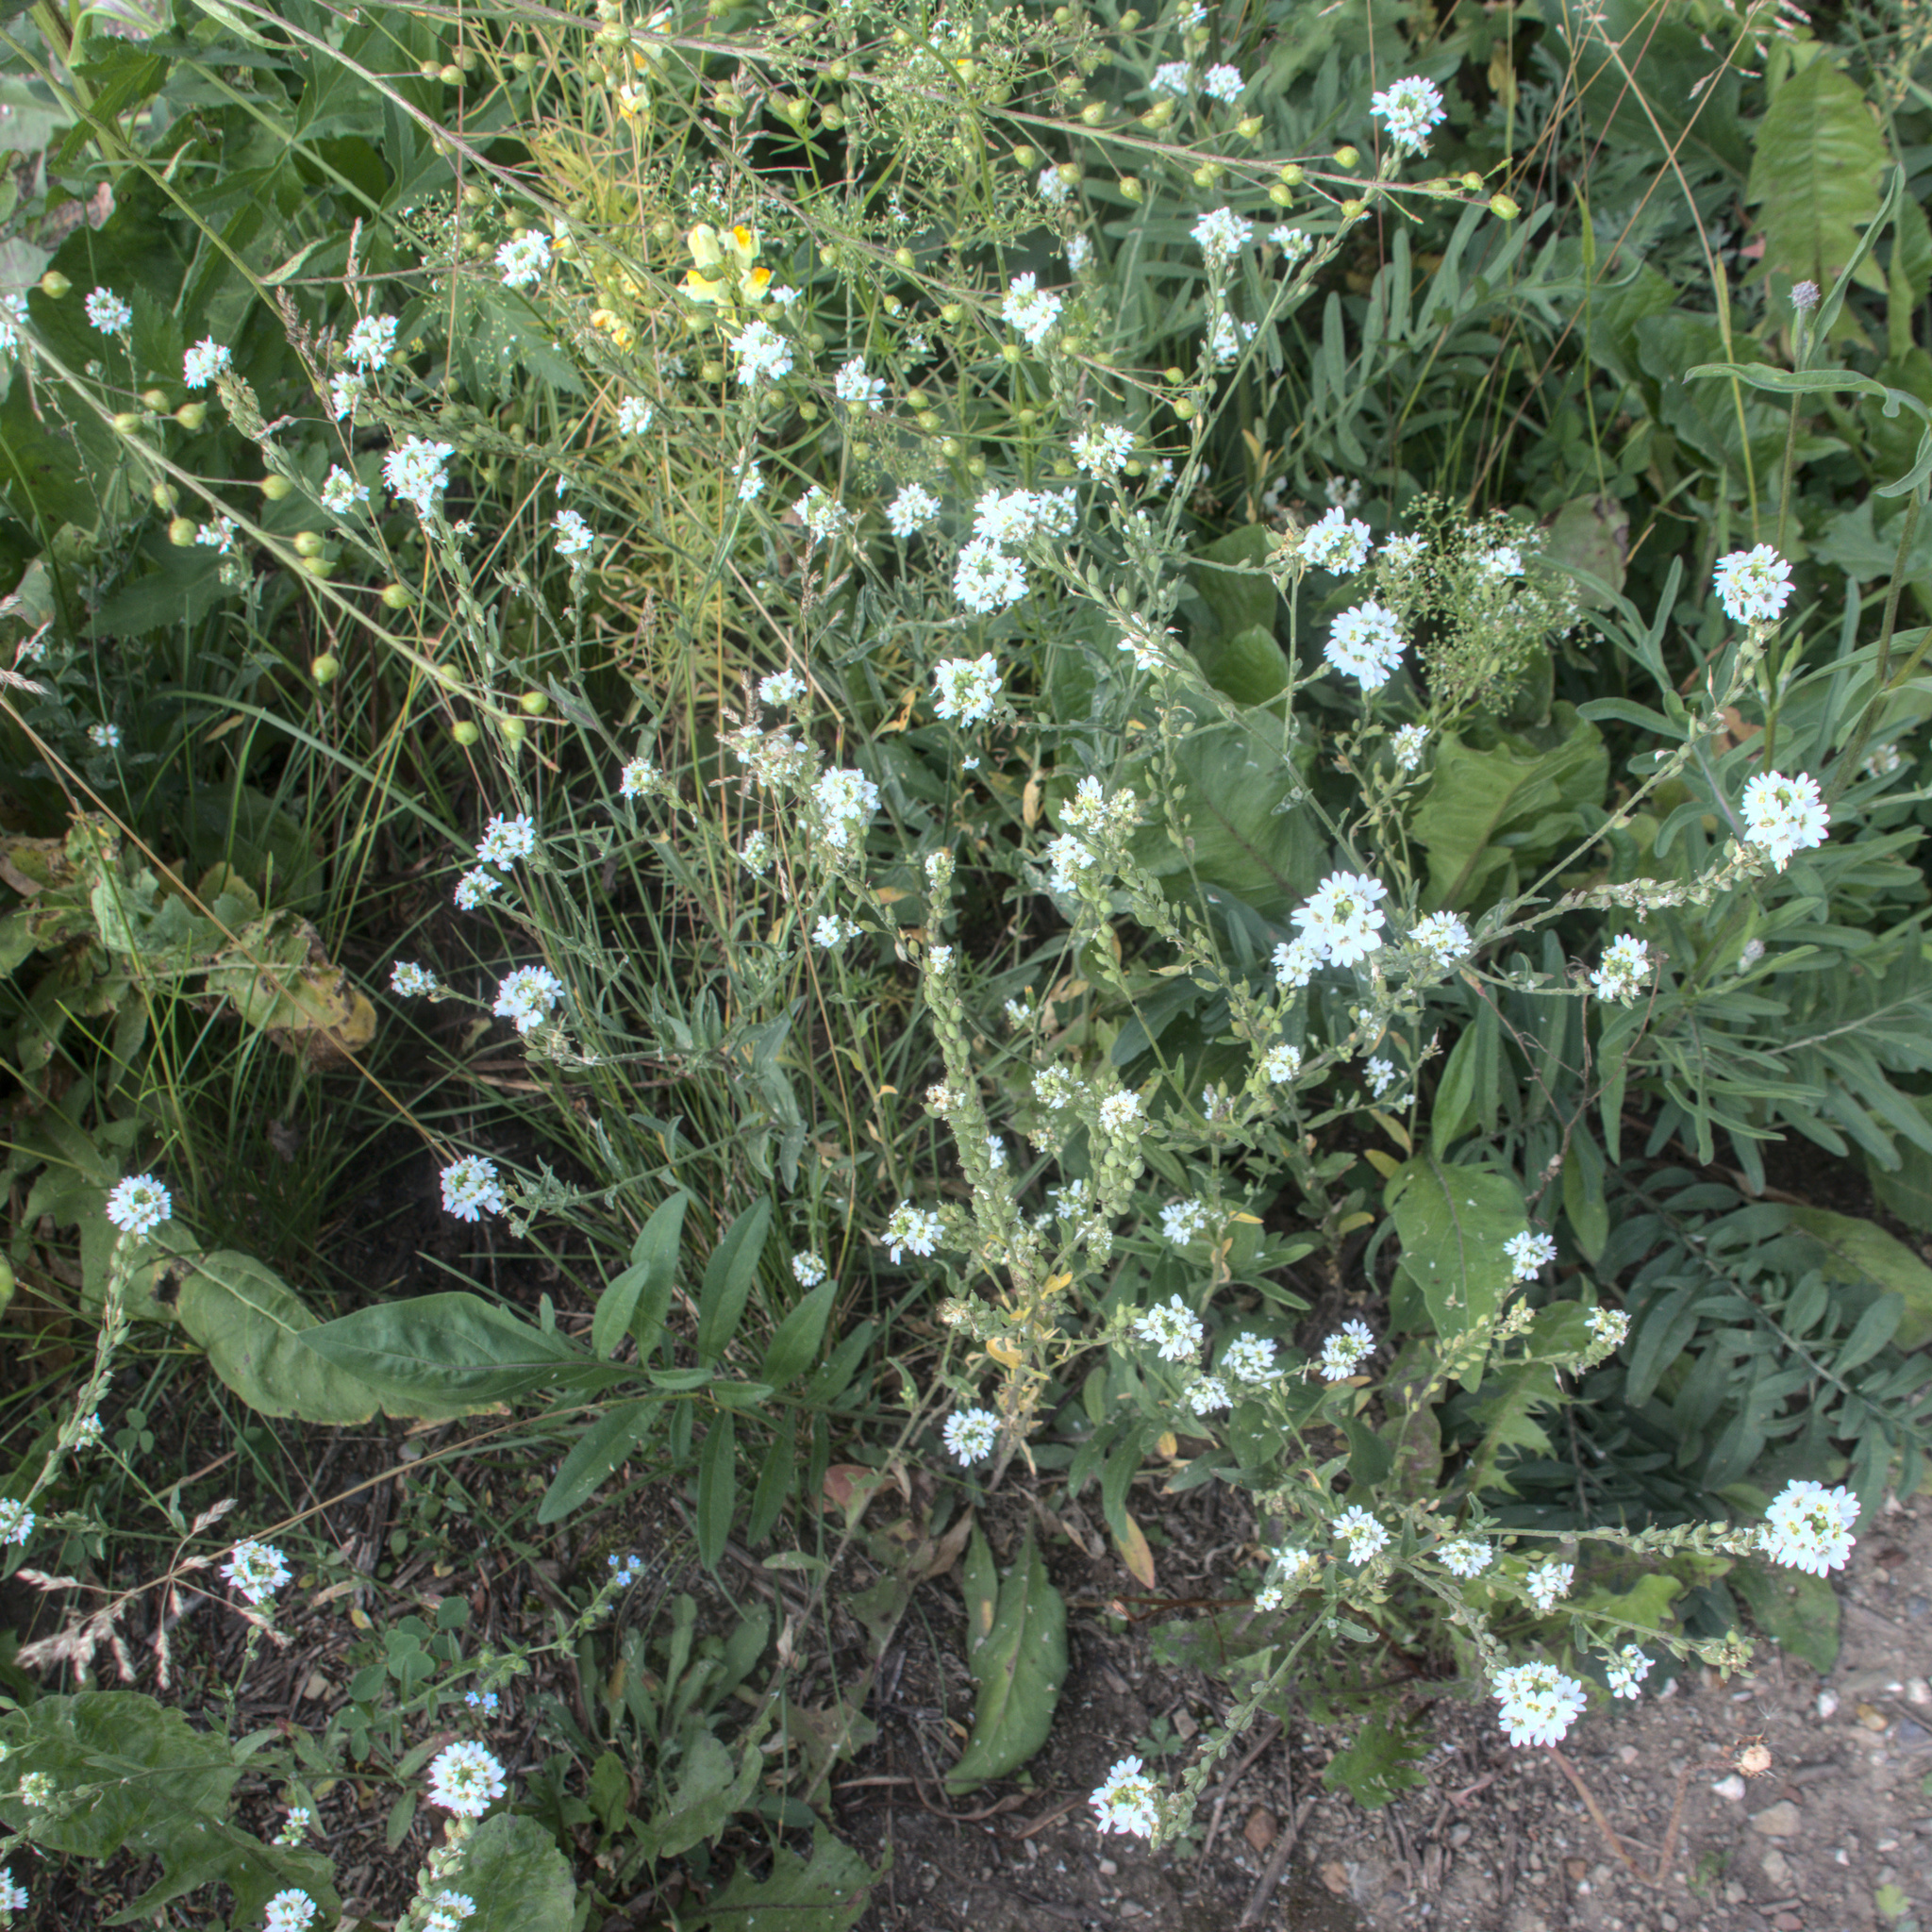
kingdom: Plantae
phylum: Tracheophyta
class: Magnoliopsida
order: Brassicales
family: Brassicaceae
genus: Berteroa
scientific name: Berteroa incana
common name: Hoary alison
